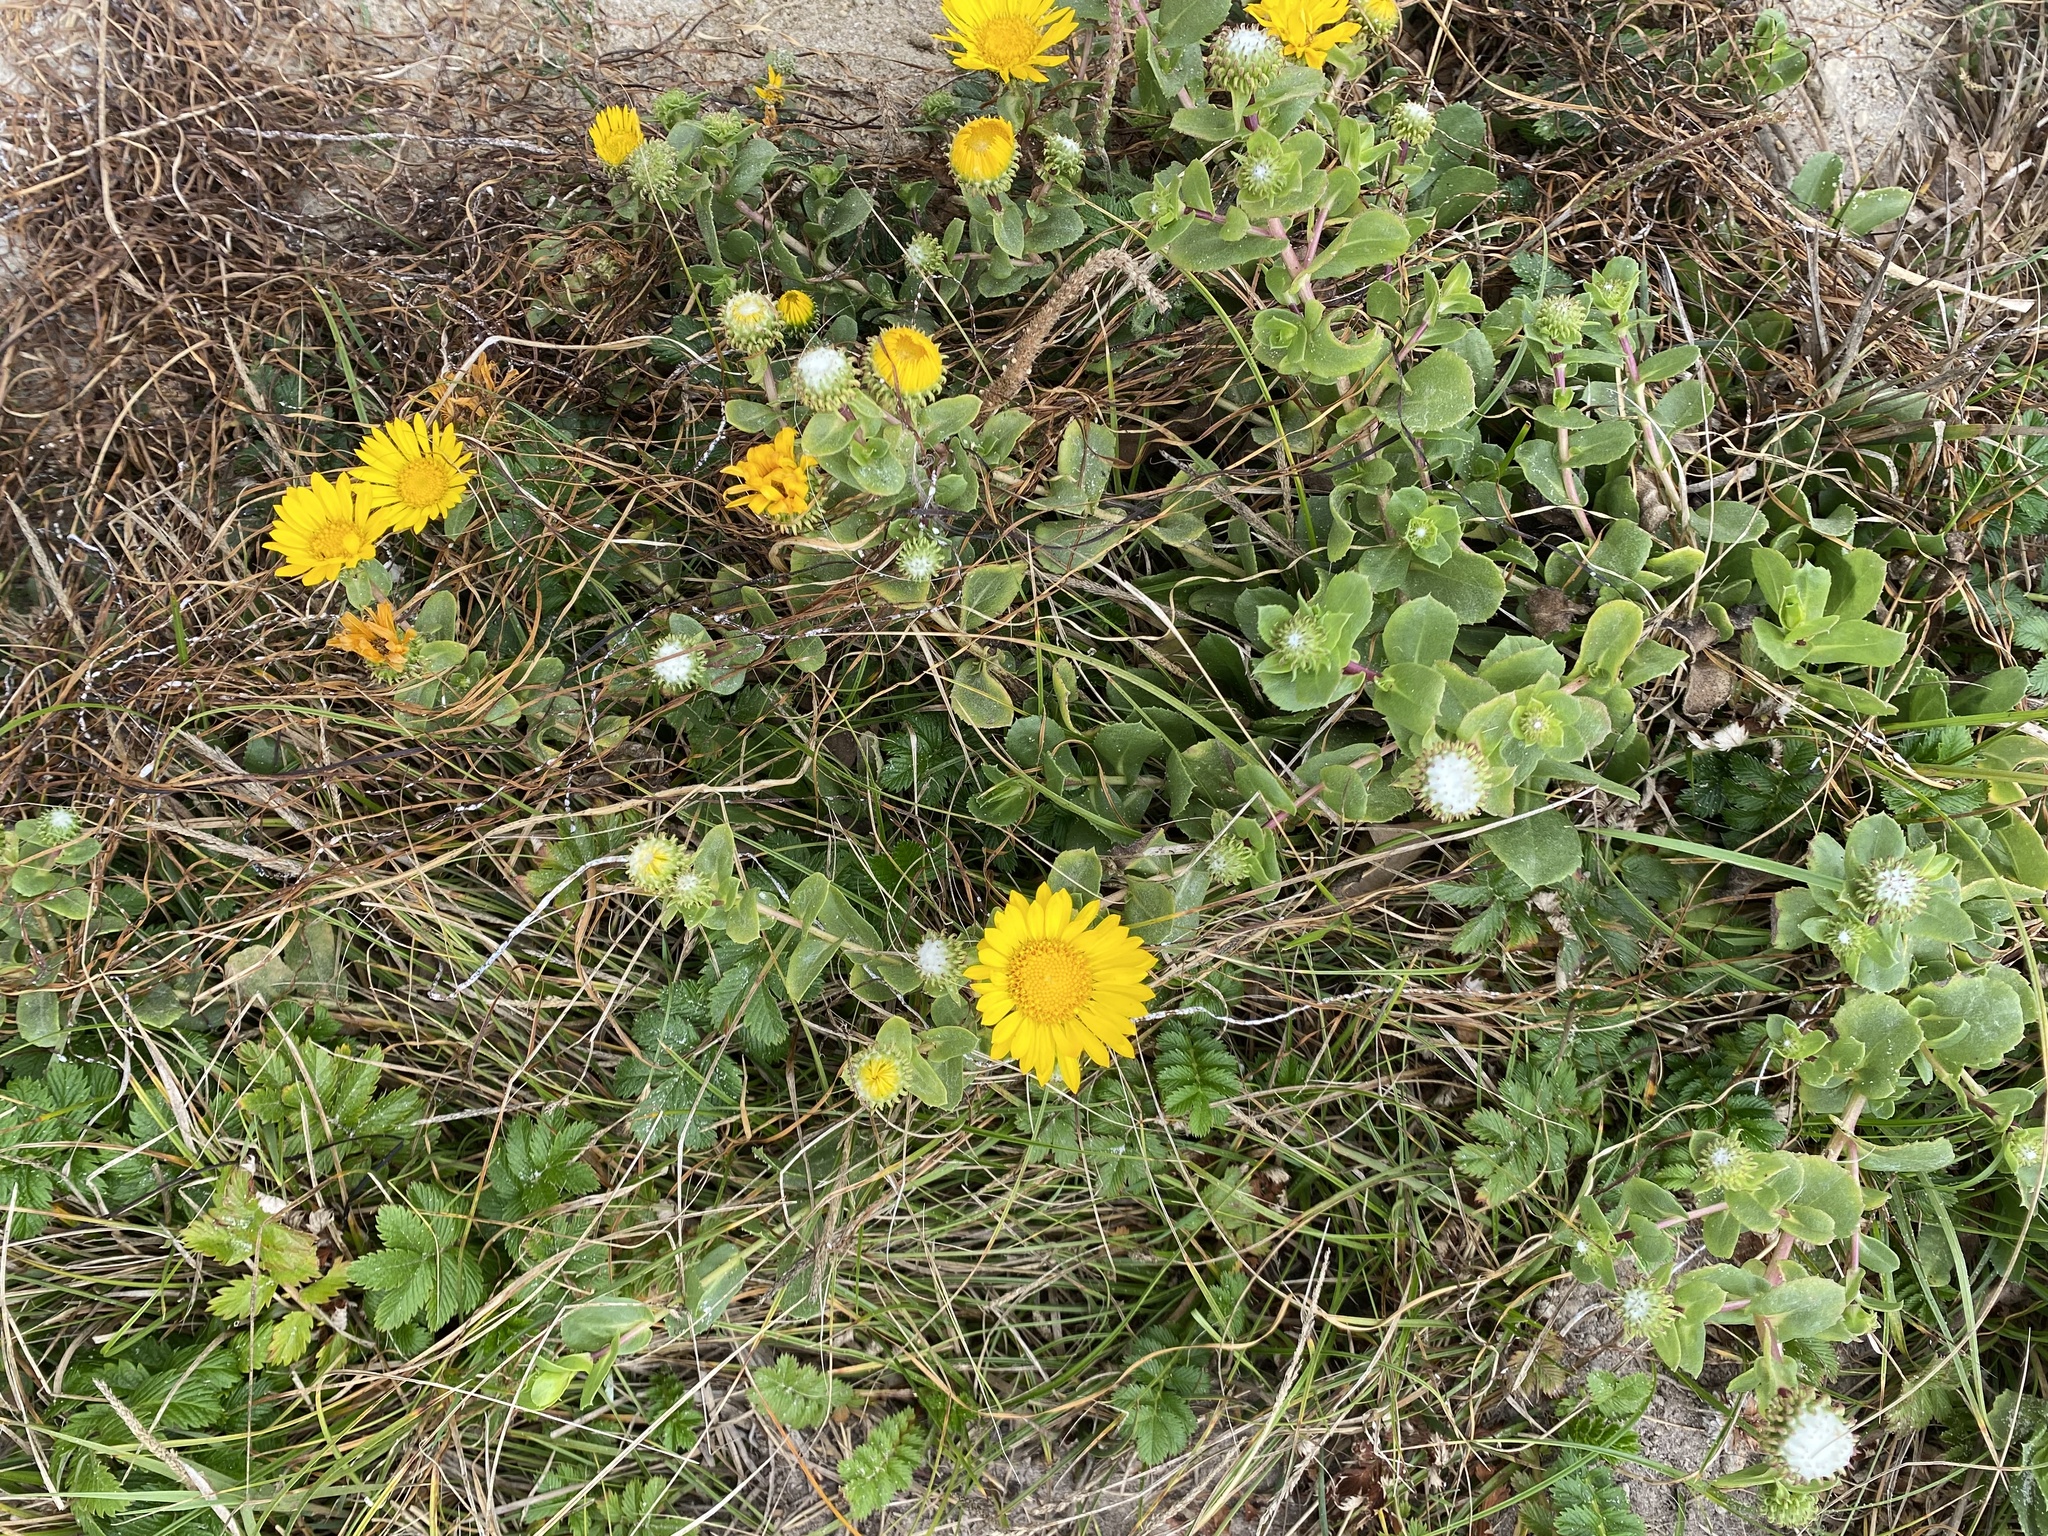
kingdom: Plantae
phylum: Tracheophyta
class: Magnoliopsida
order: Asterales
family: Asteraceae
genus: Grindelia
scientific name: Grindelia hirsutula
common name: Hairy gumweed
